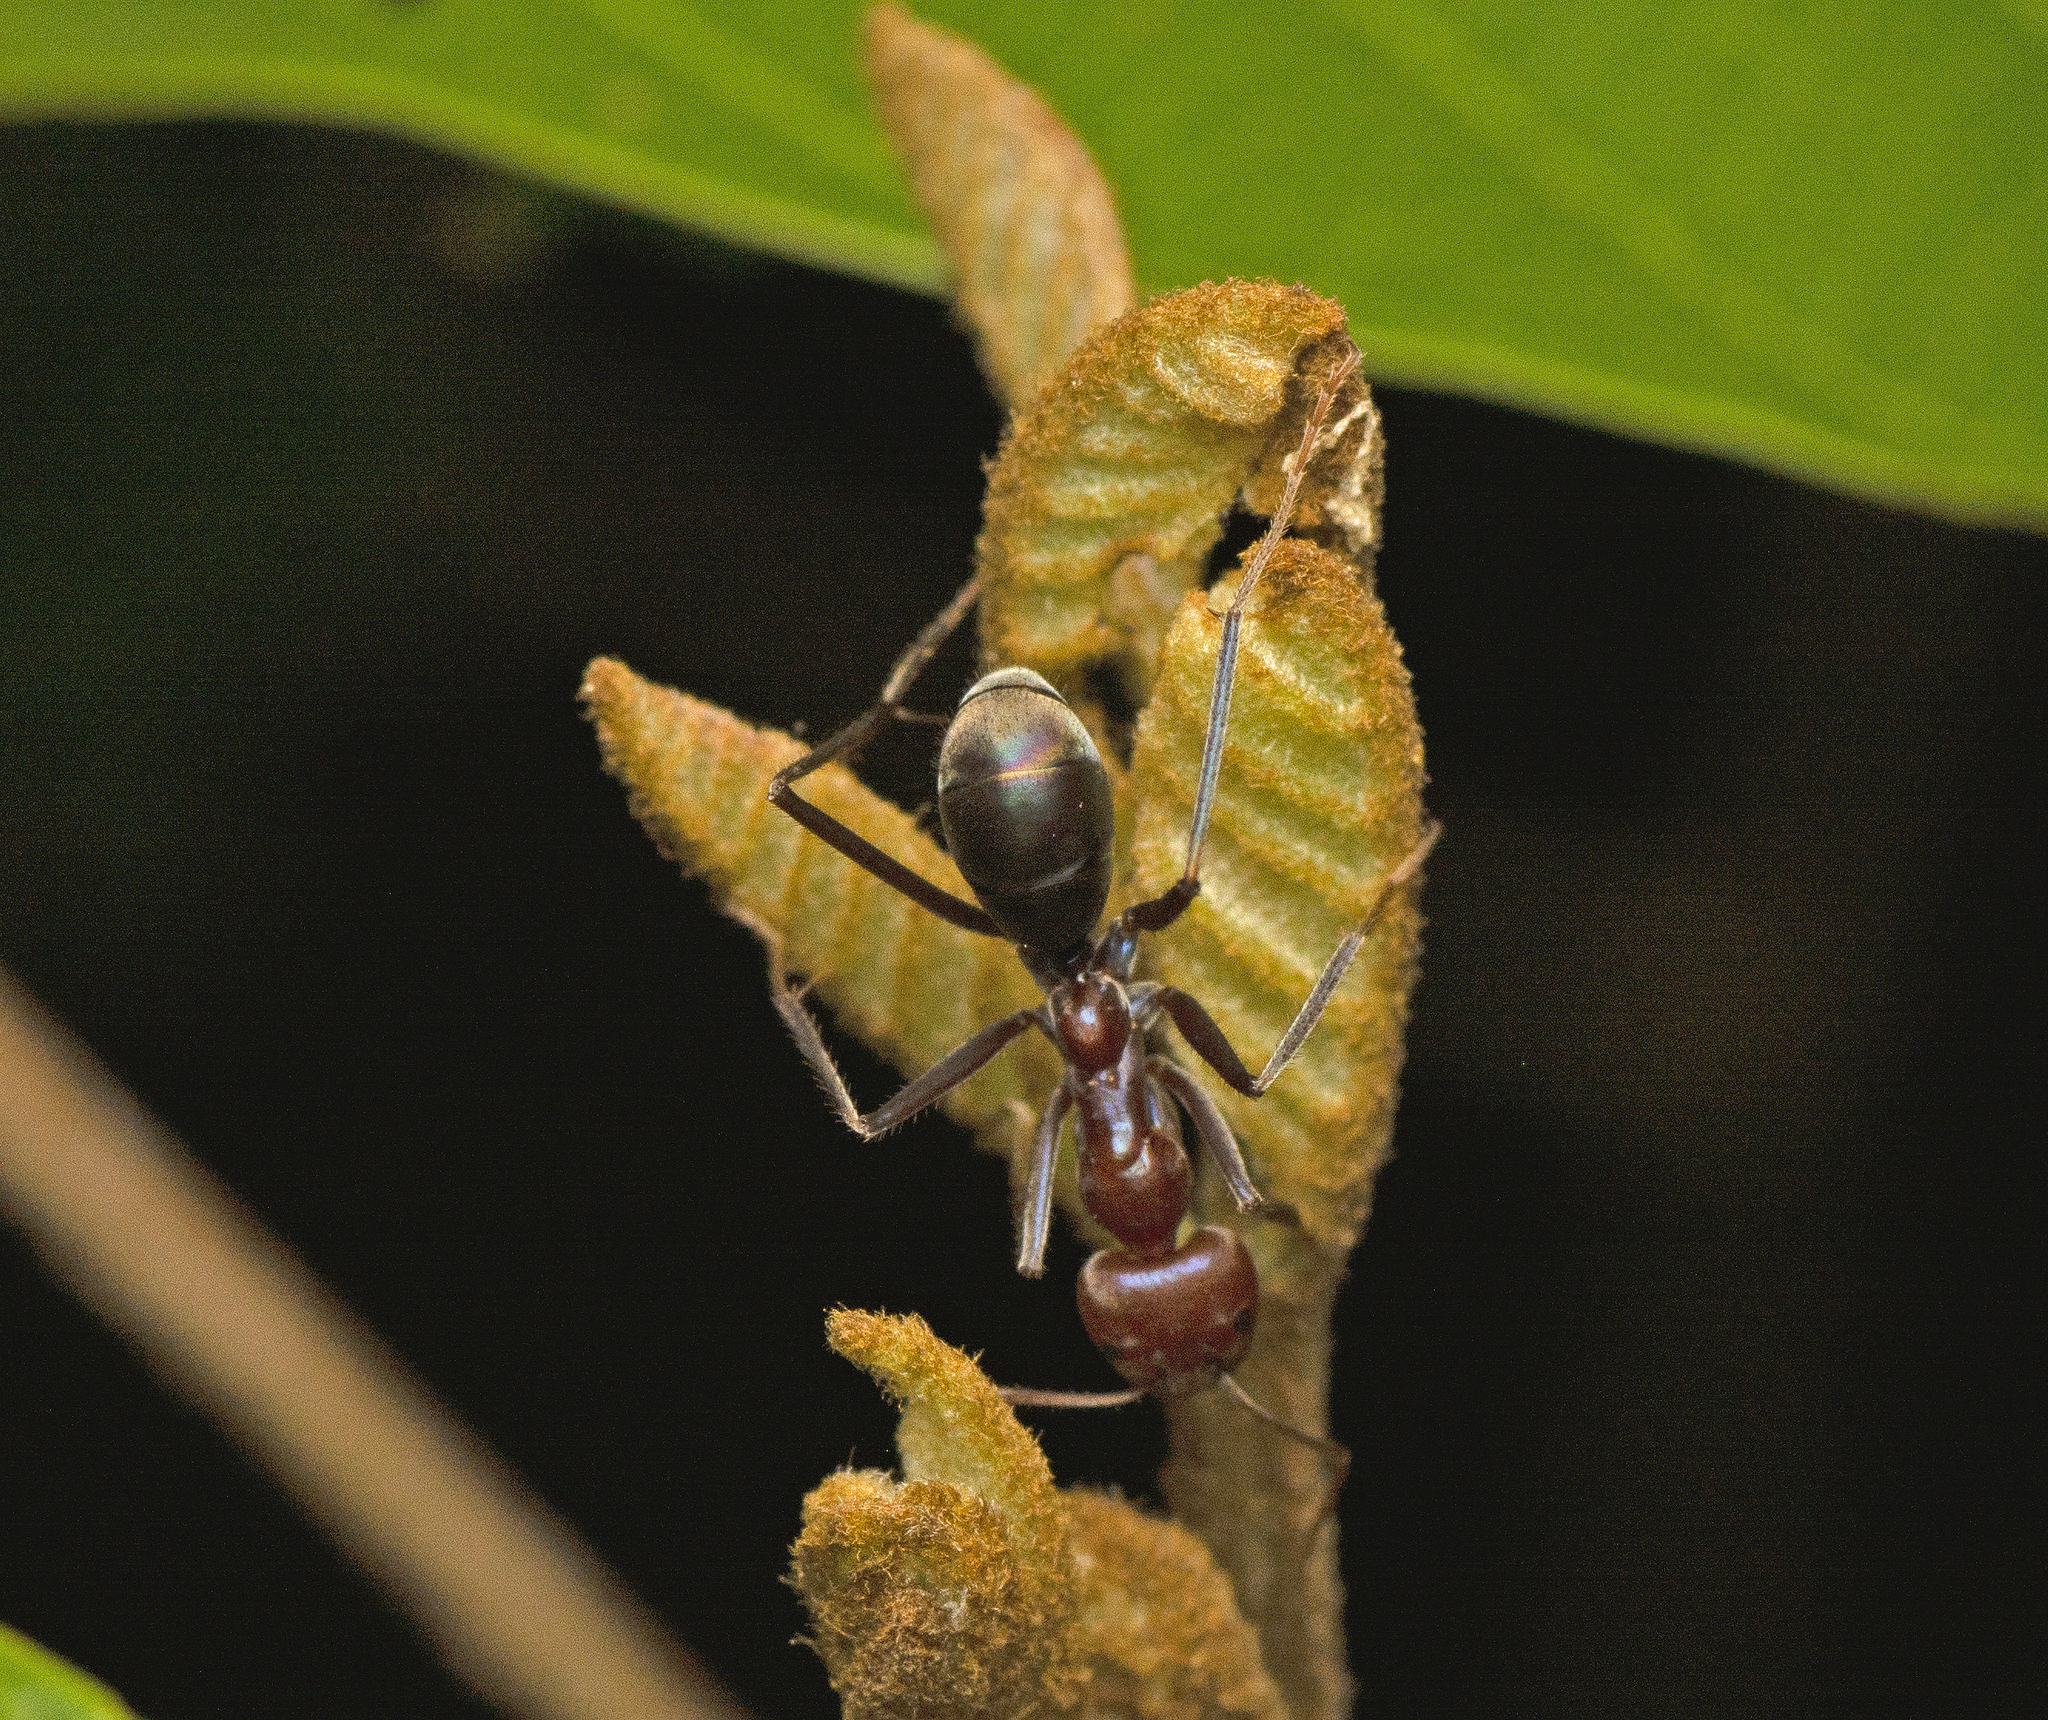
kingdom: Animalia
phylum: Arthropoda
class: Insecta
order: Hymenoptera
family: Formicidae
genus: Iridomyrmex
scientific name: Iridomyrmex purpureus
